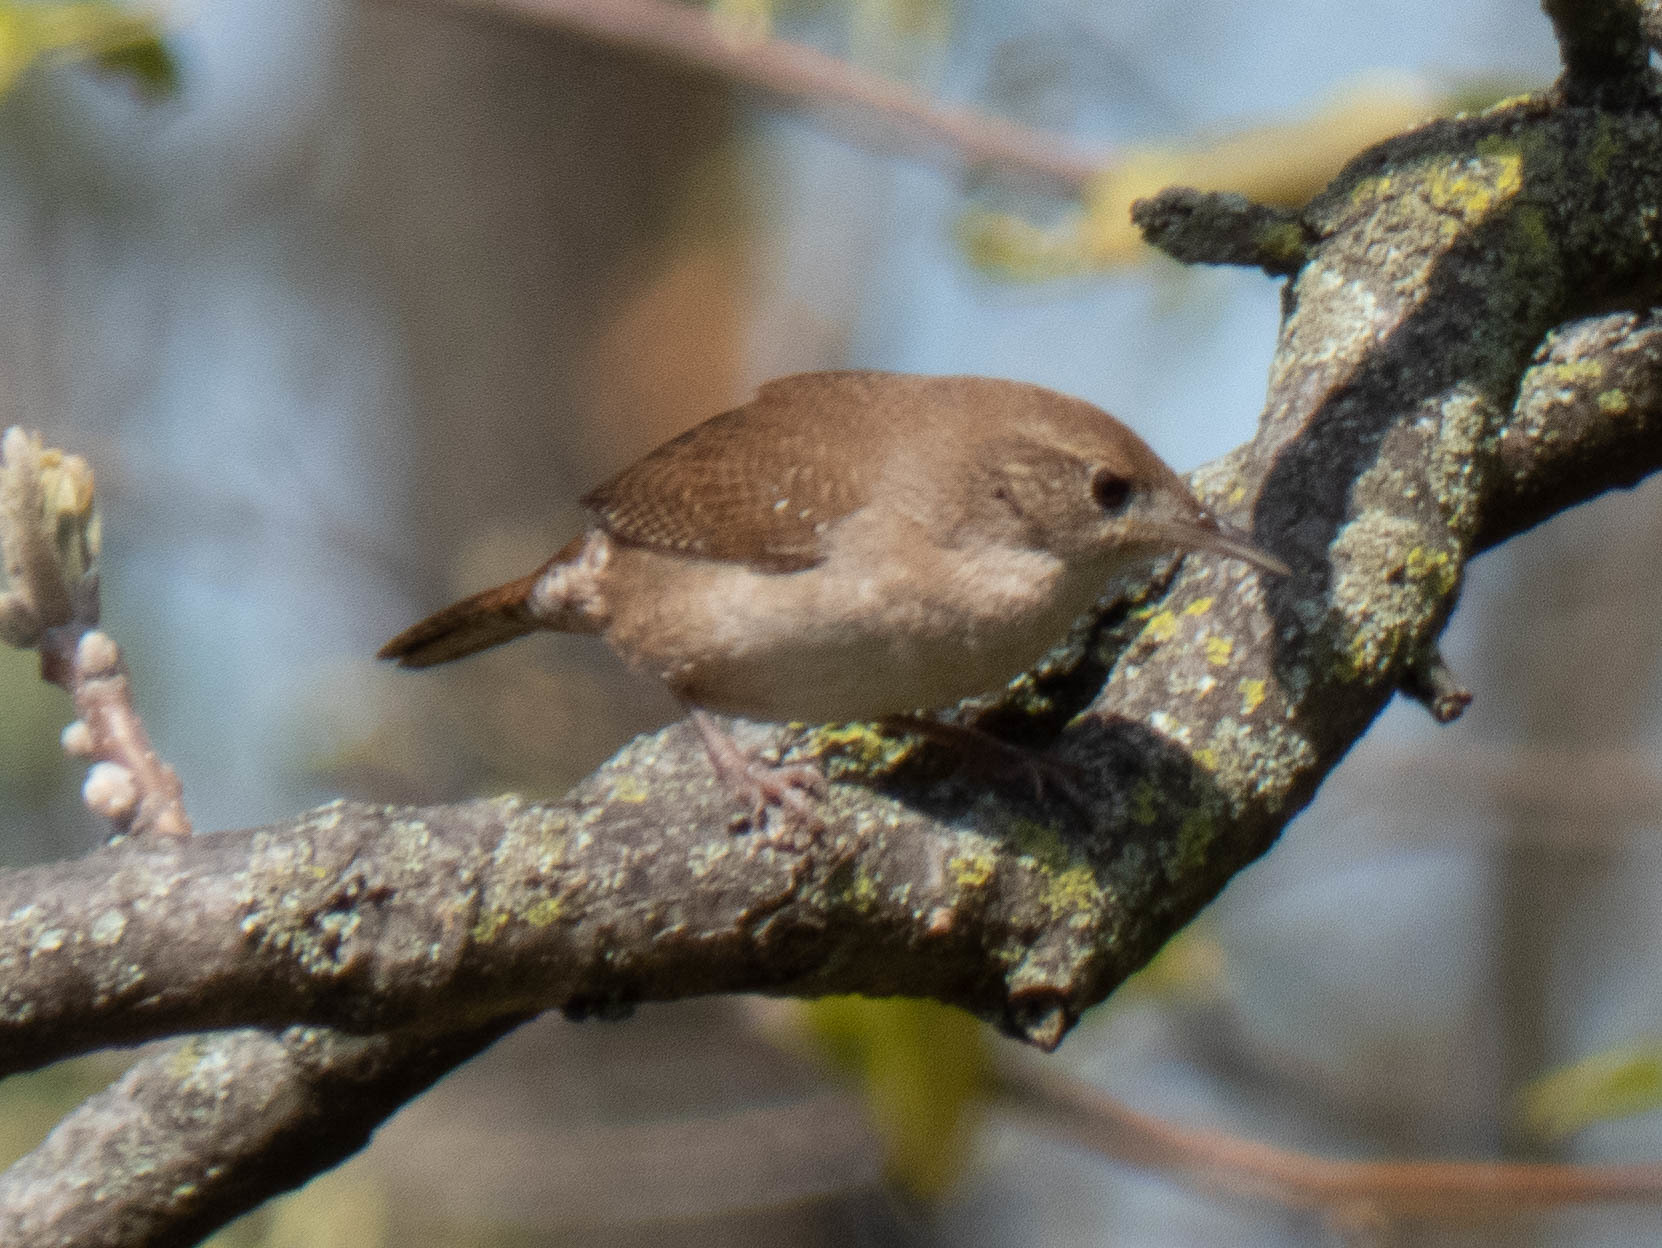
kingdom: Animalia
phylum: Chordata
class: Aves
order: Passeriformes
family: Troglodytidae
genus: Troglodytes
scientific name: Troglodytes aedon
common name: House wren
